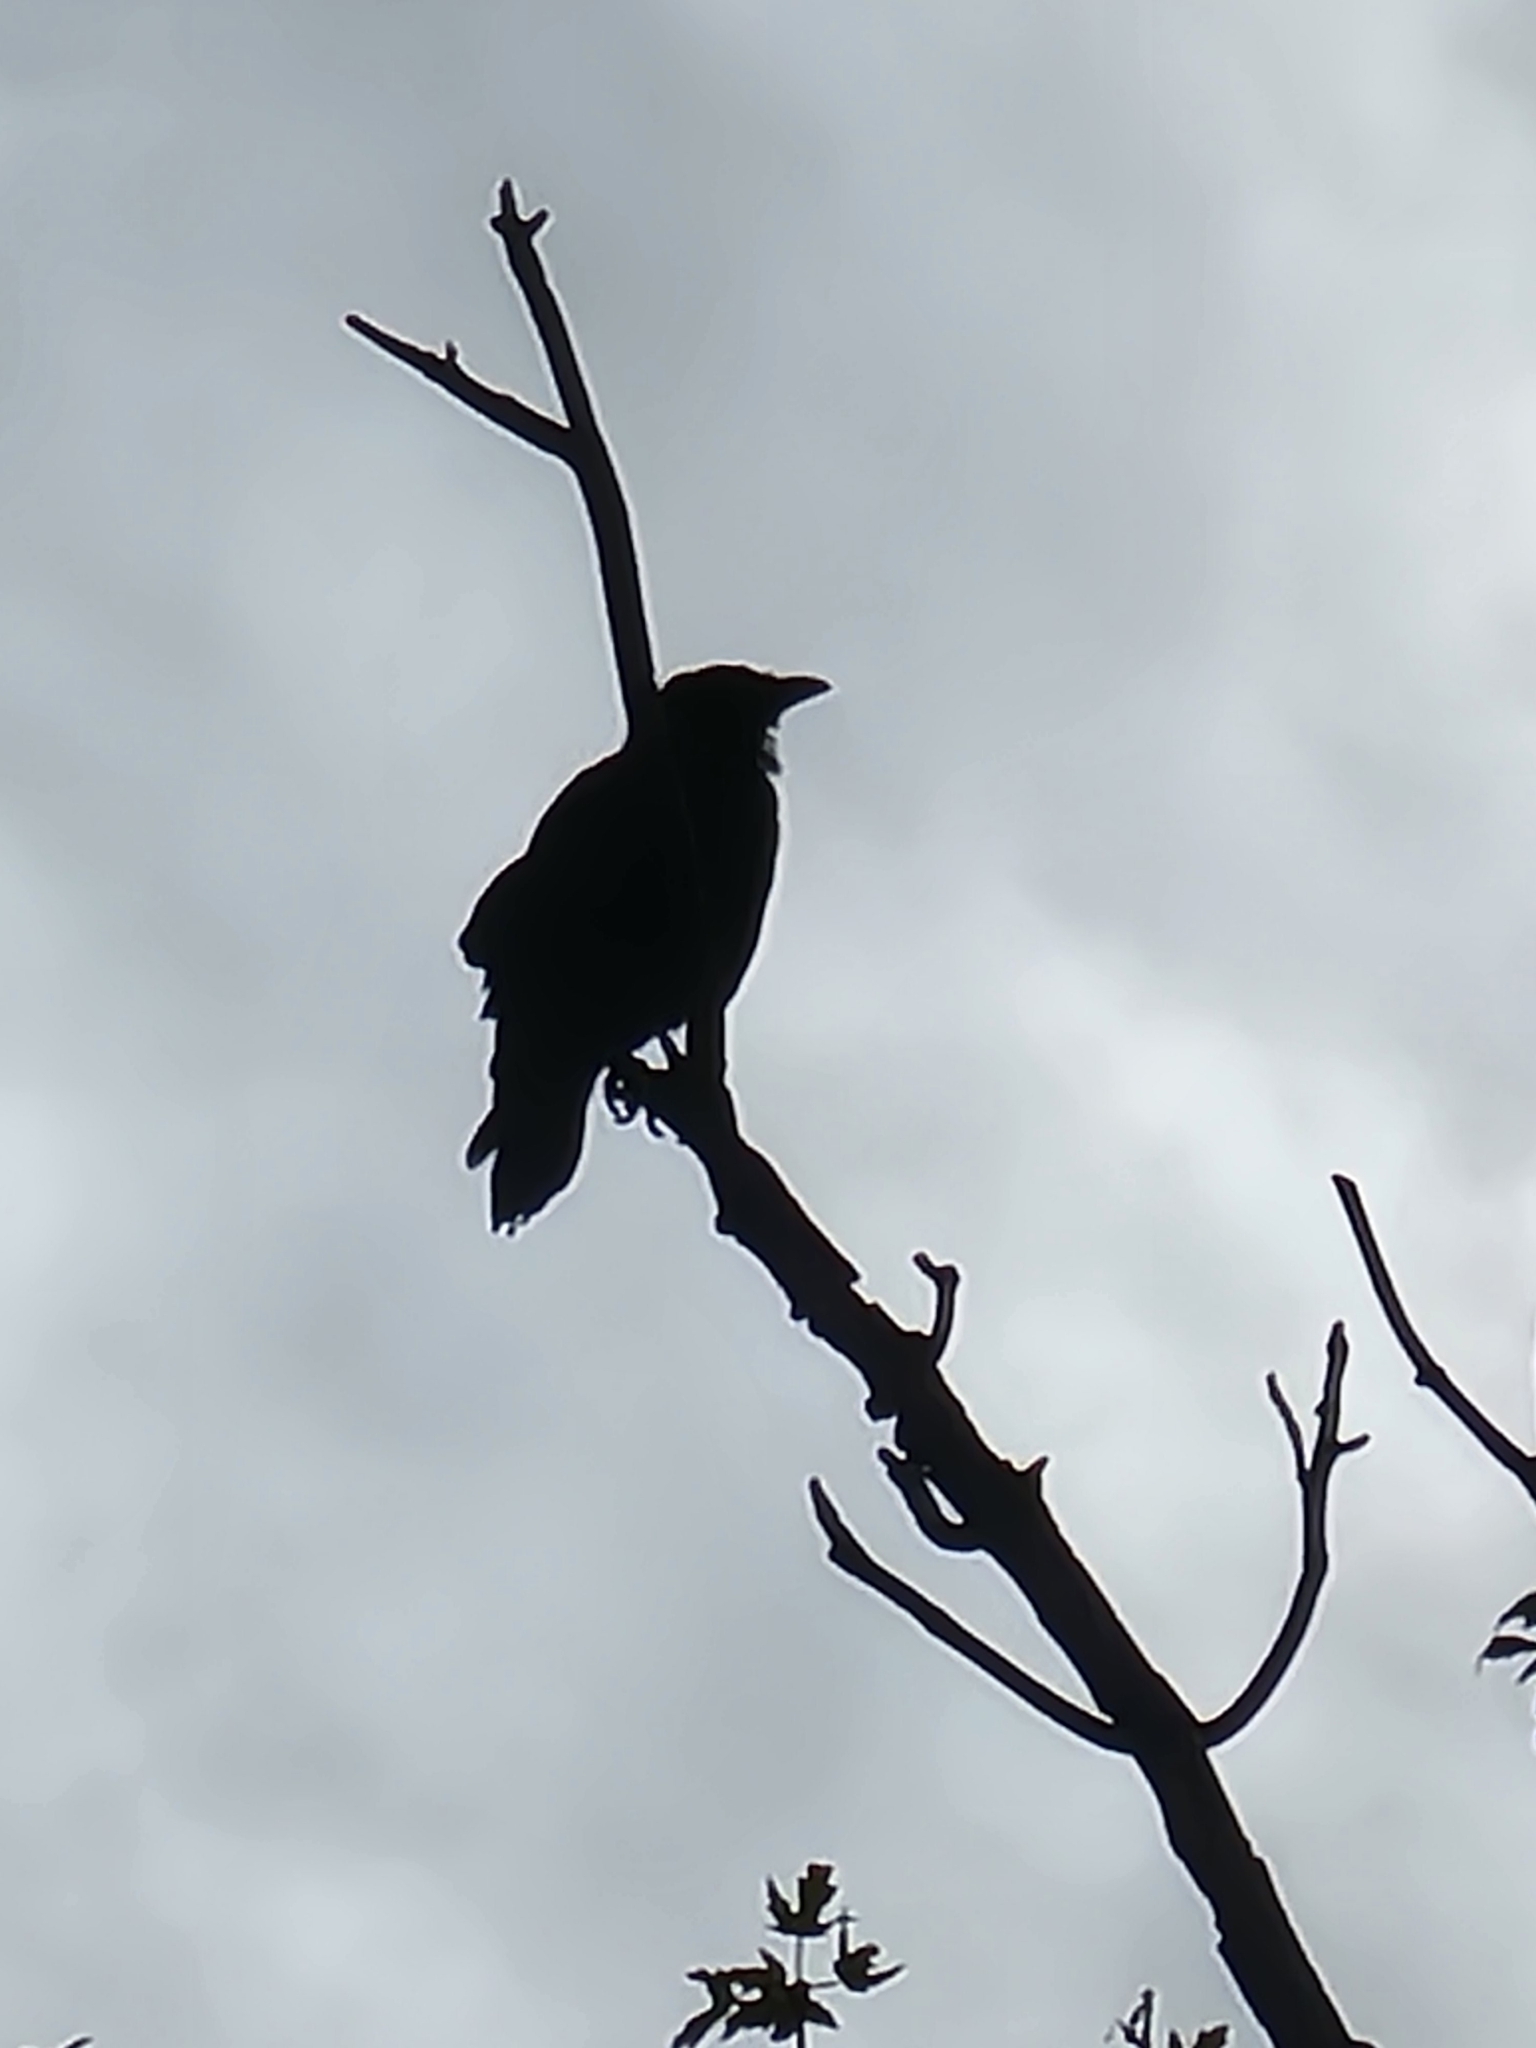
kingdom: Animalia
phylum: Chordata
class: Aves
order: Passeriformes
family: Corvidae
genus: Corvus
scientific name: Corvus ossifragus
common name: Fish crow
